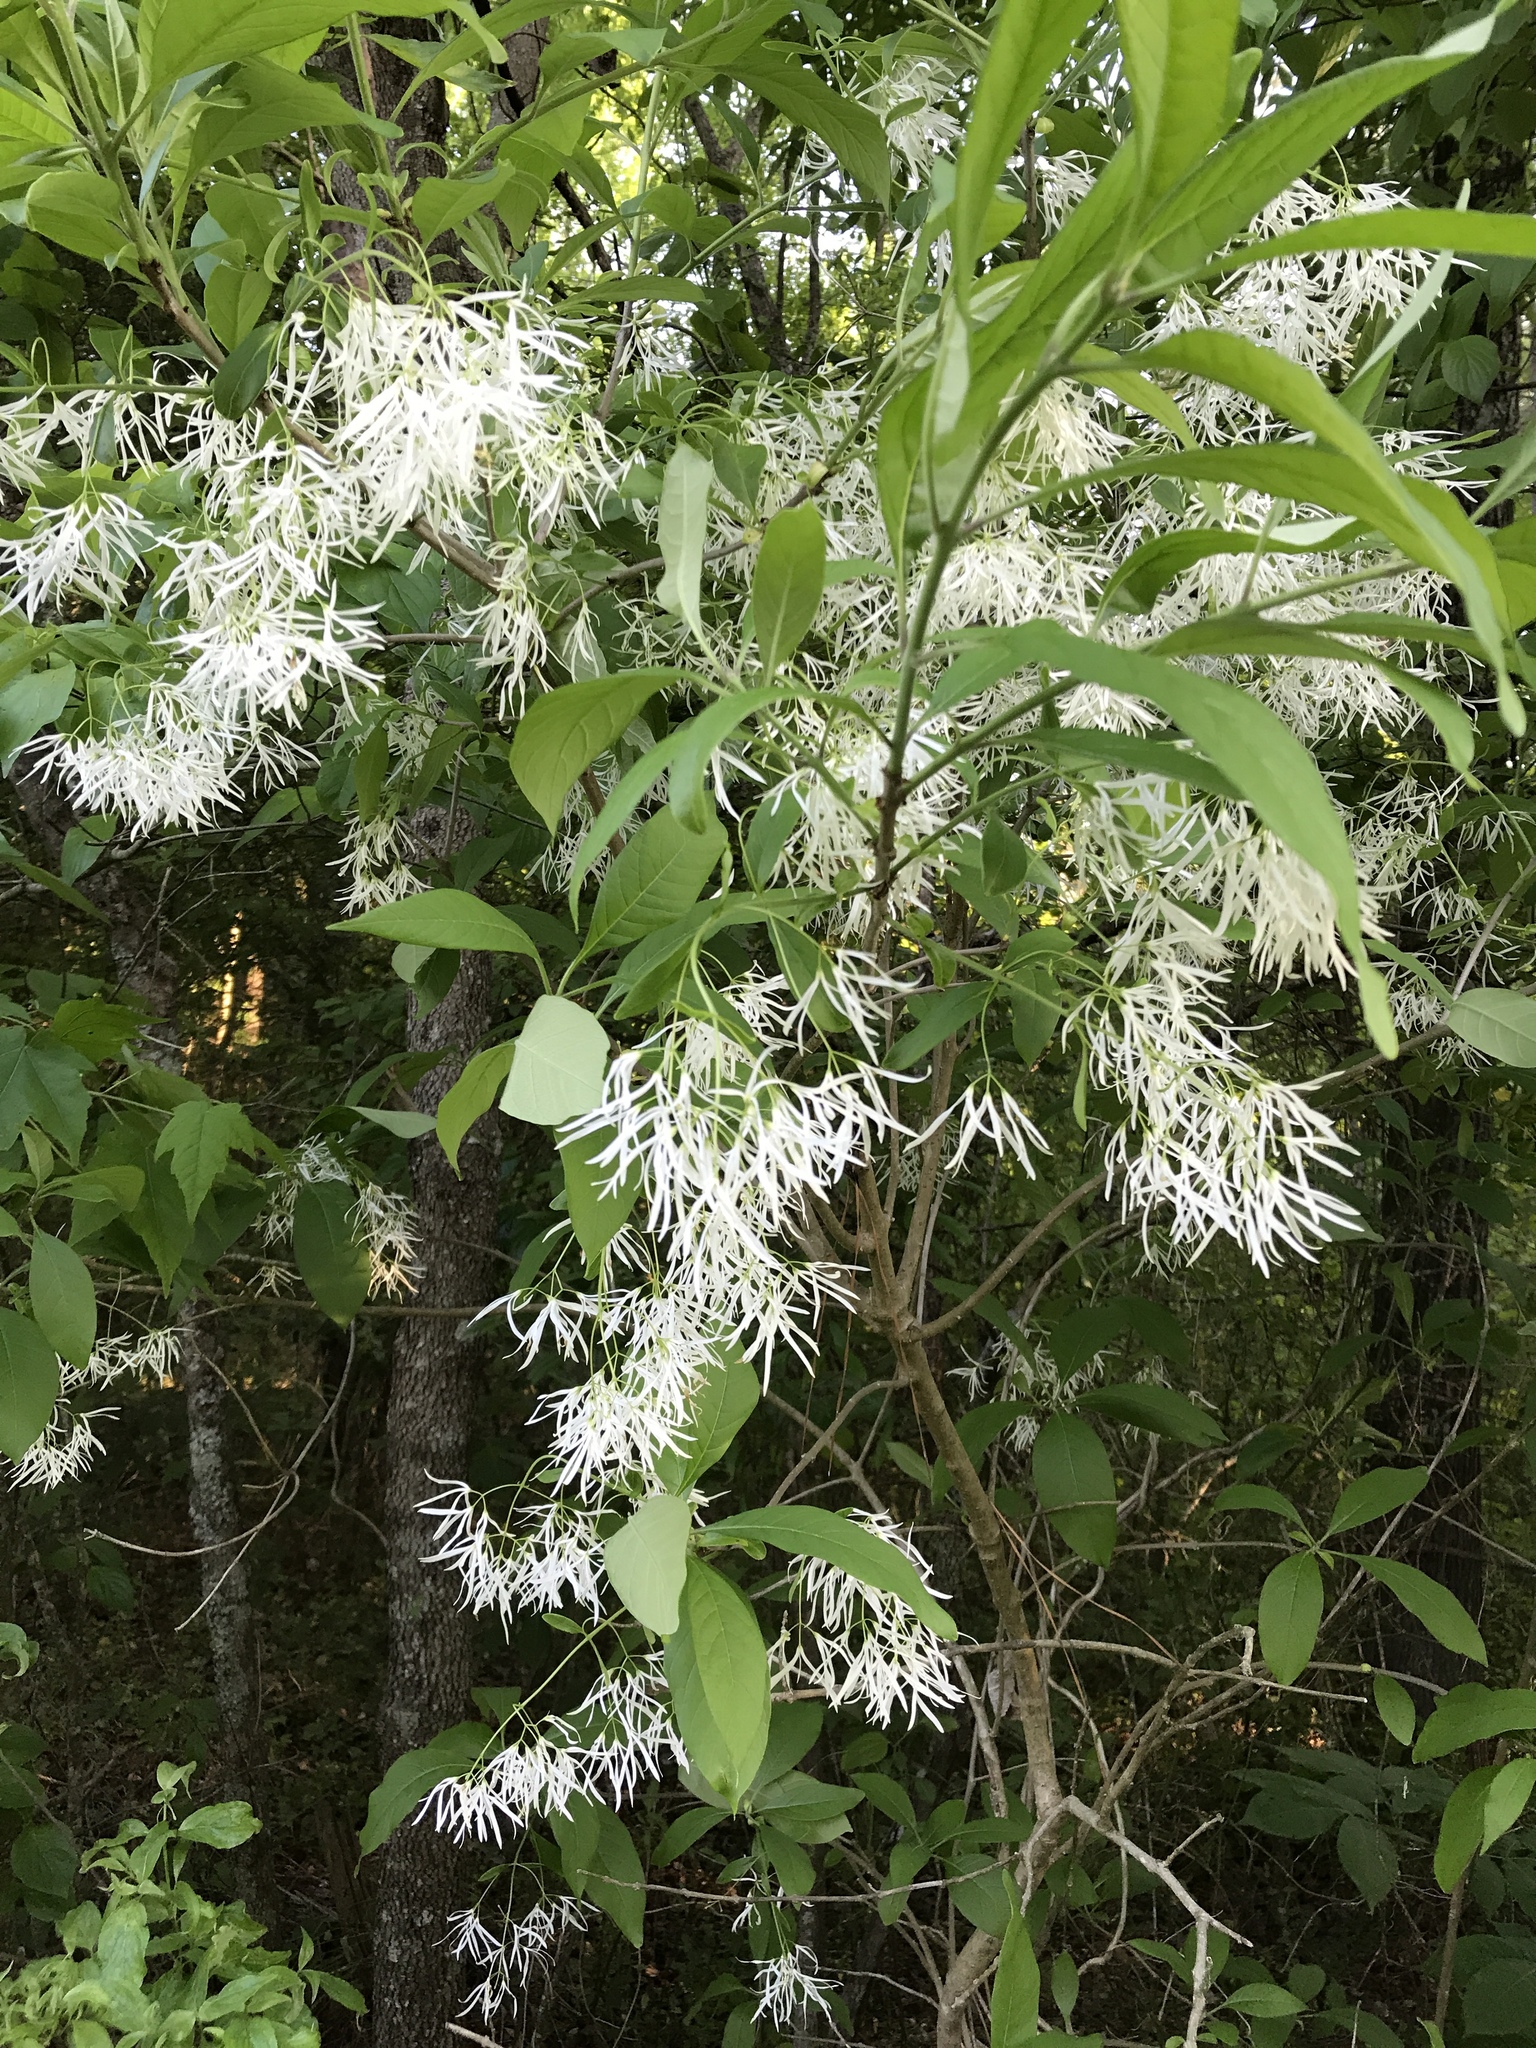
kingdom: Plantae
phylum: Tracheophyta
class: Magnoliopsida
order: Lamiales
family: Oleaceae
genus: Chionanthus
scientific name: Chionanthus virginicus
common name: American fringetree
